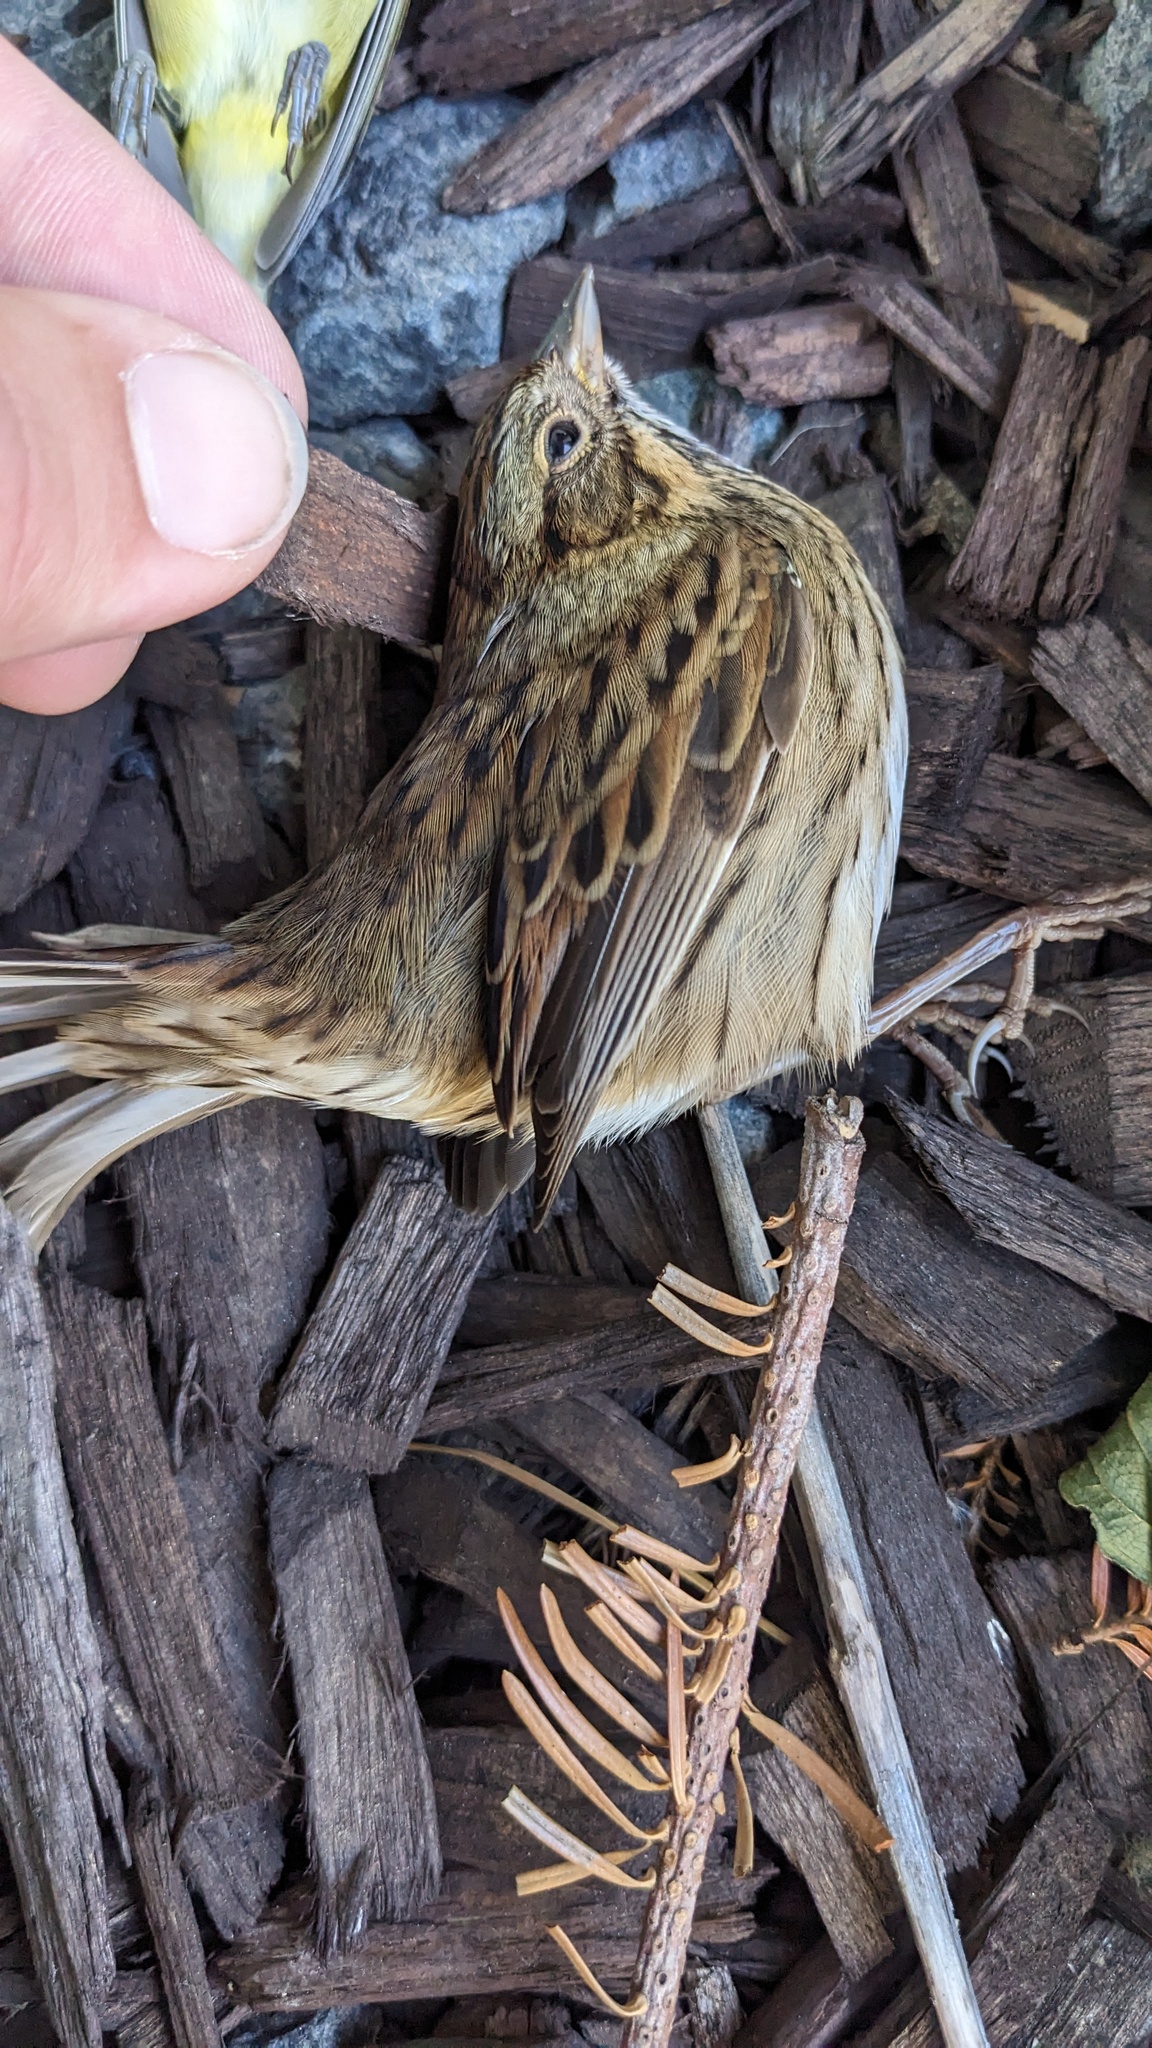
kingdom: Animalia
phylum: Chordata
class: Aves
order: Passeriformes
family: Passerellidae
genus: Melospiza
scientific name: Melospiza lincolnii
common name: Lincoln's sparrow
